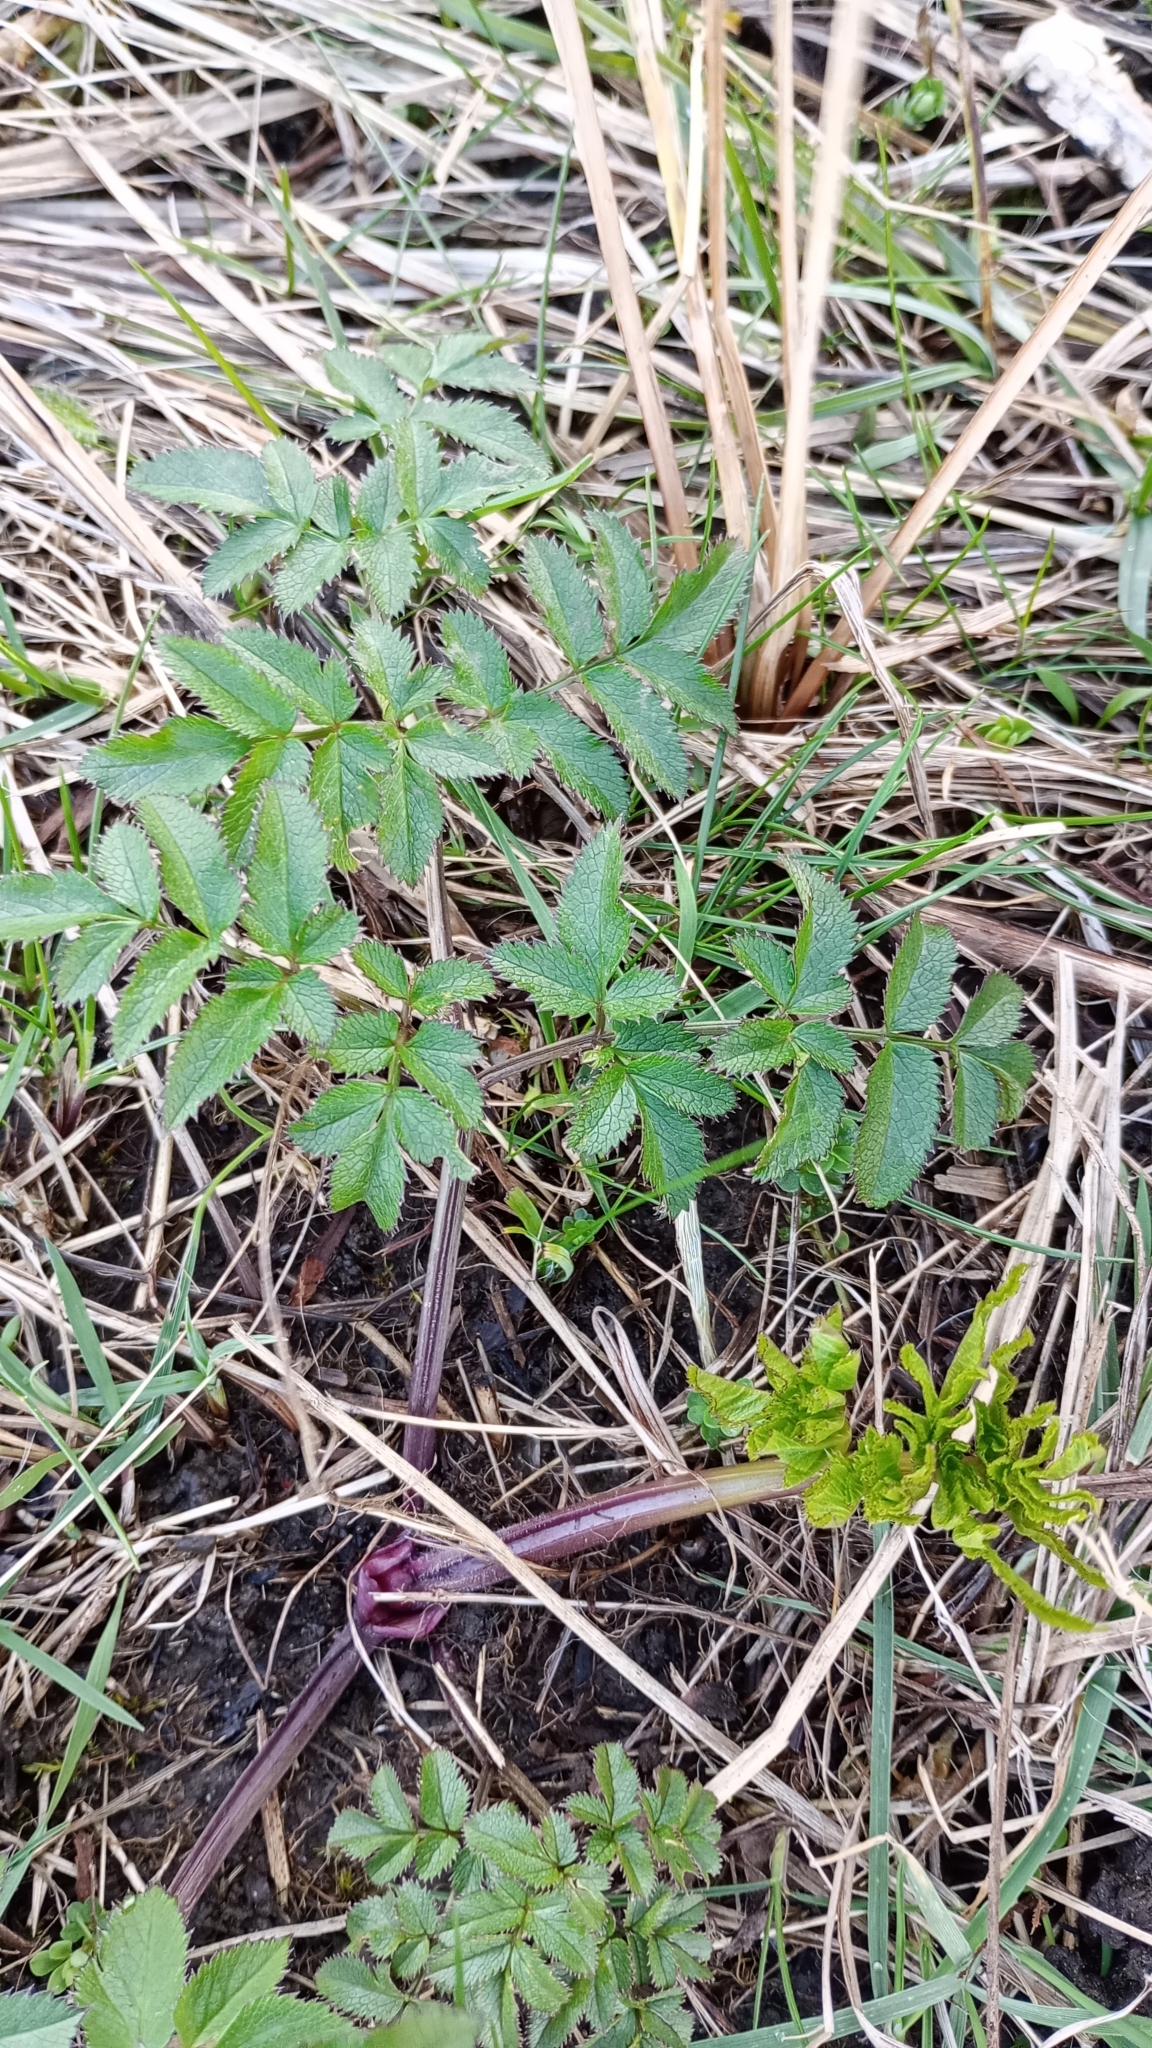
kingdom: Plantae
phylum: Tracheophyta
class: Magnoliopsida
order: Apiales
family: Apiaceae
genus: Angelica
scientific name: Angelica sylvestris
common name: Wild angelica
